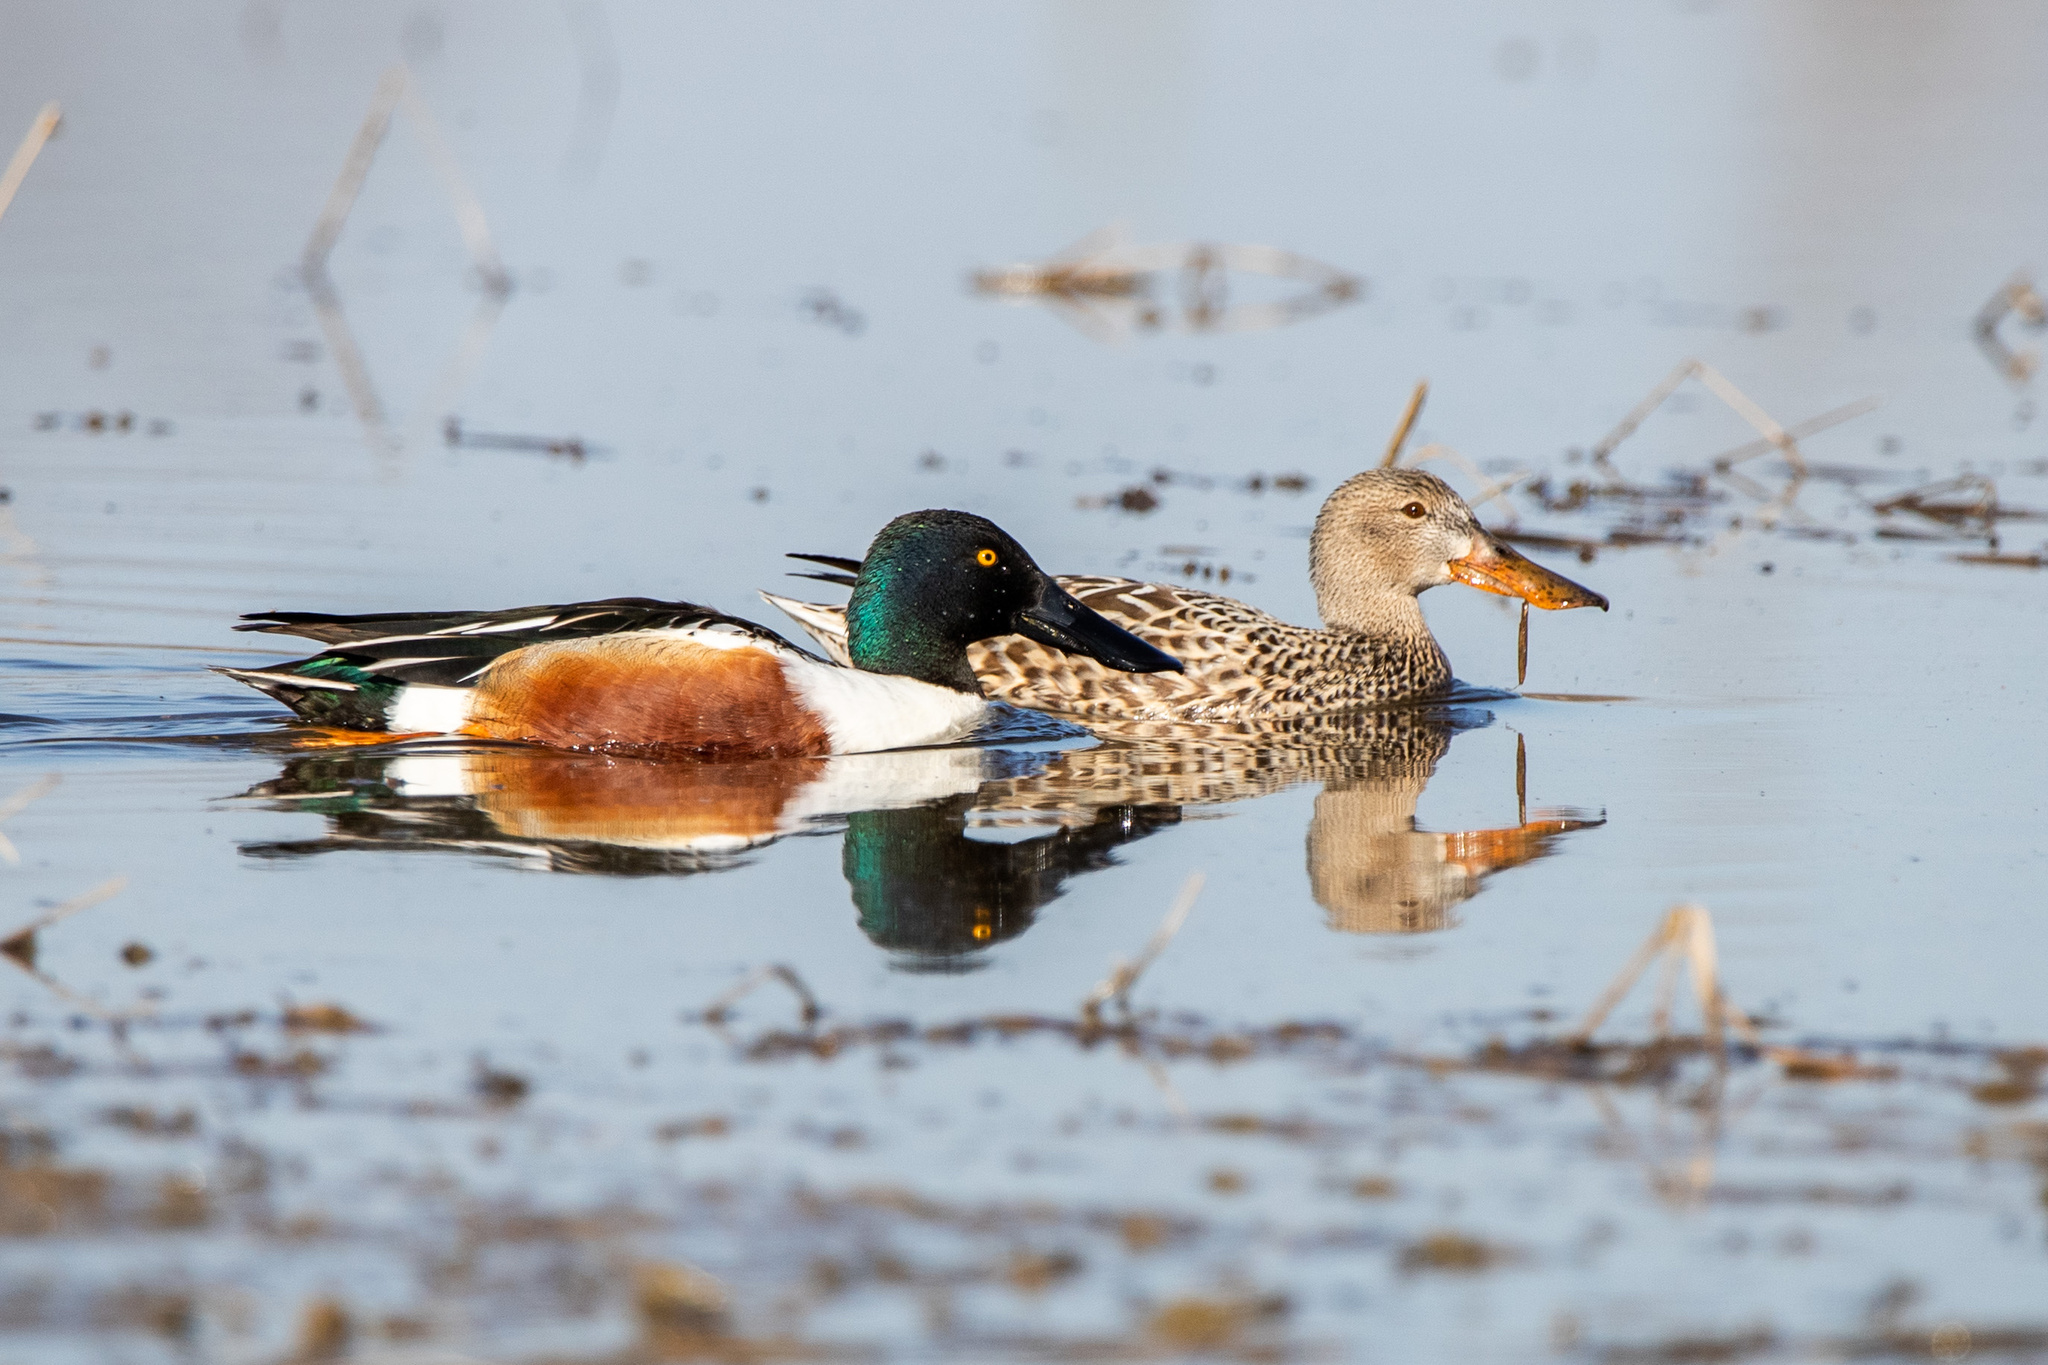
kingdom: Animalia
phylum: Chordata
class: Aves
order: Anseriformes
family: Anatidae
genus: Spatula
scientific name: Spatula clypeata
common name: Northern shoveler
